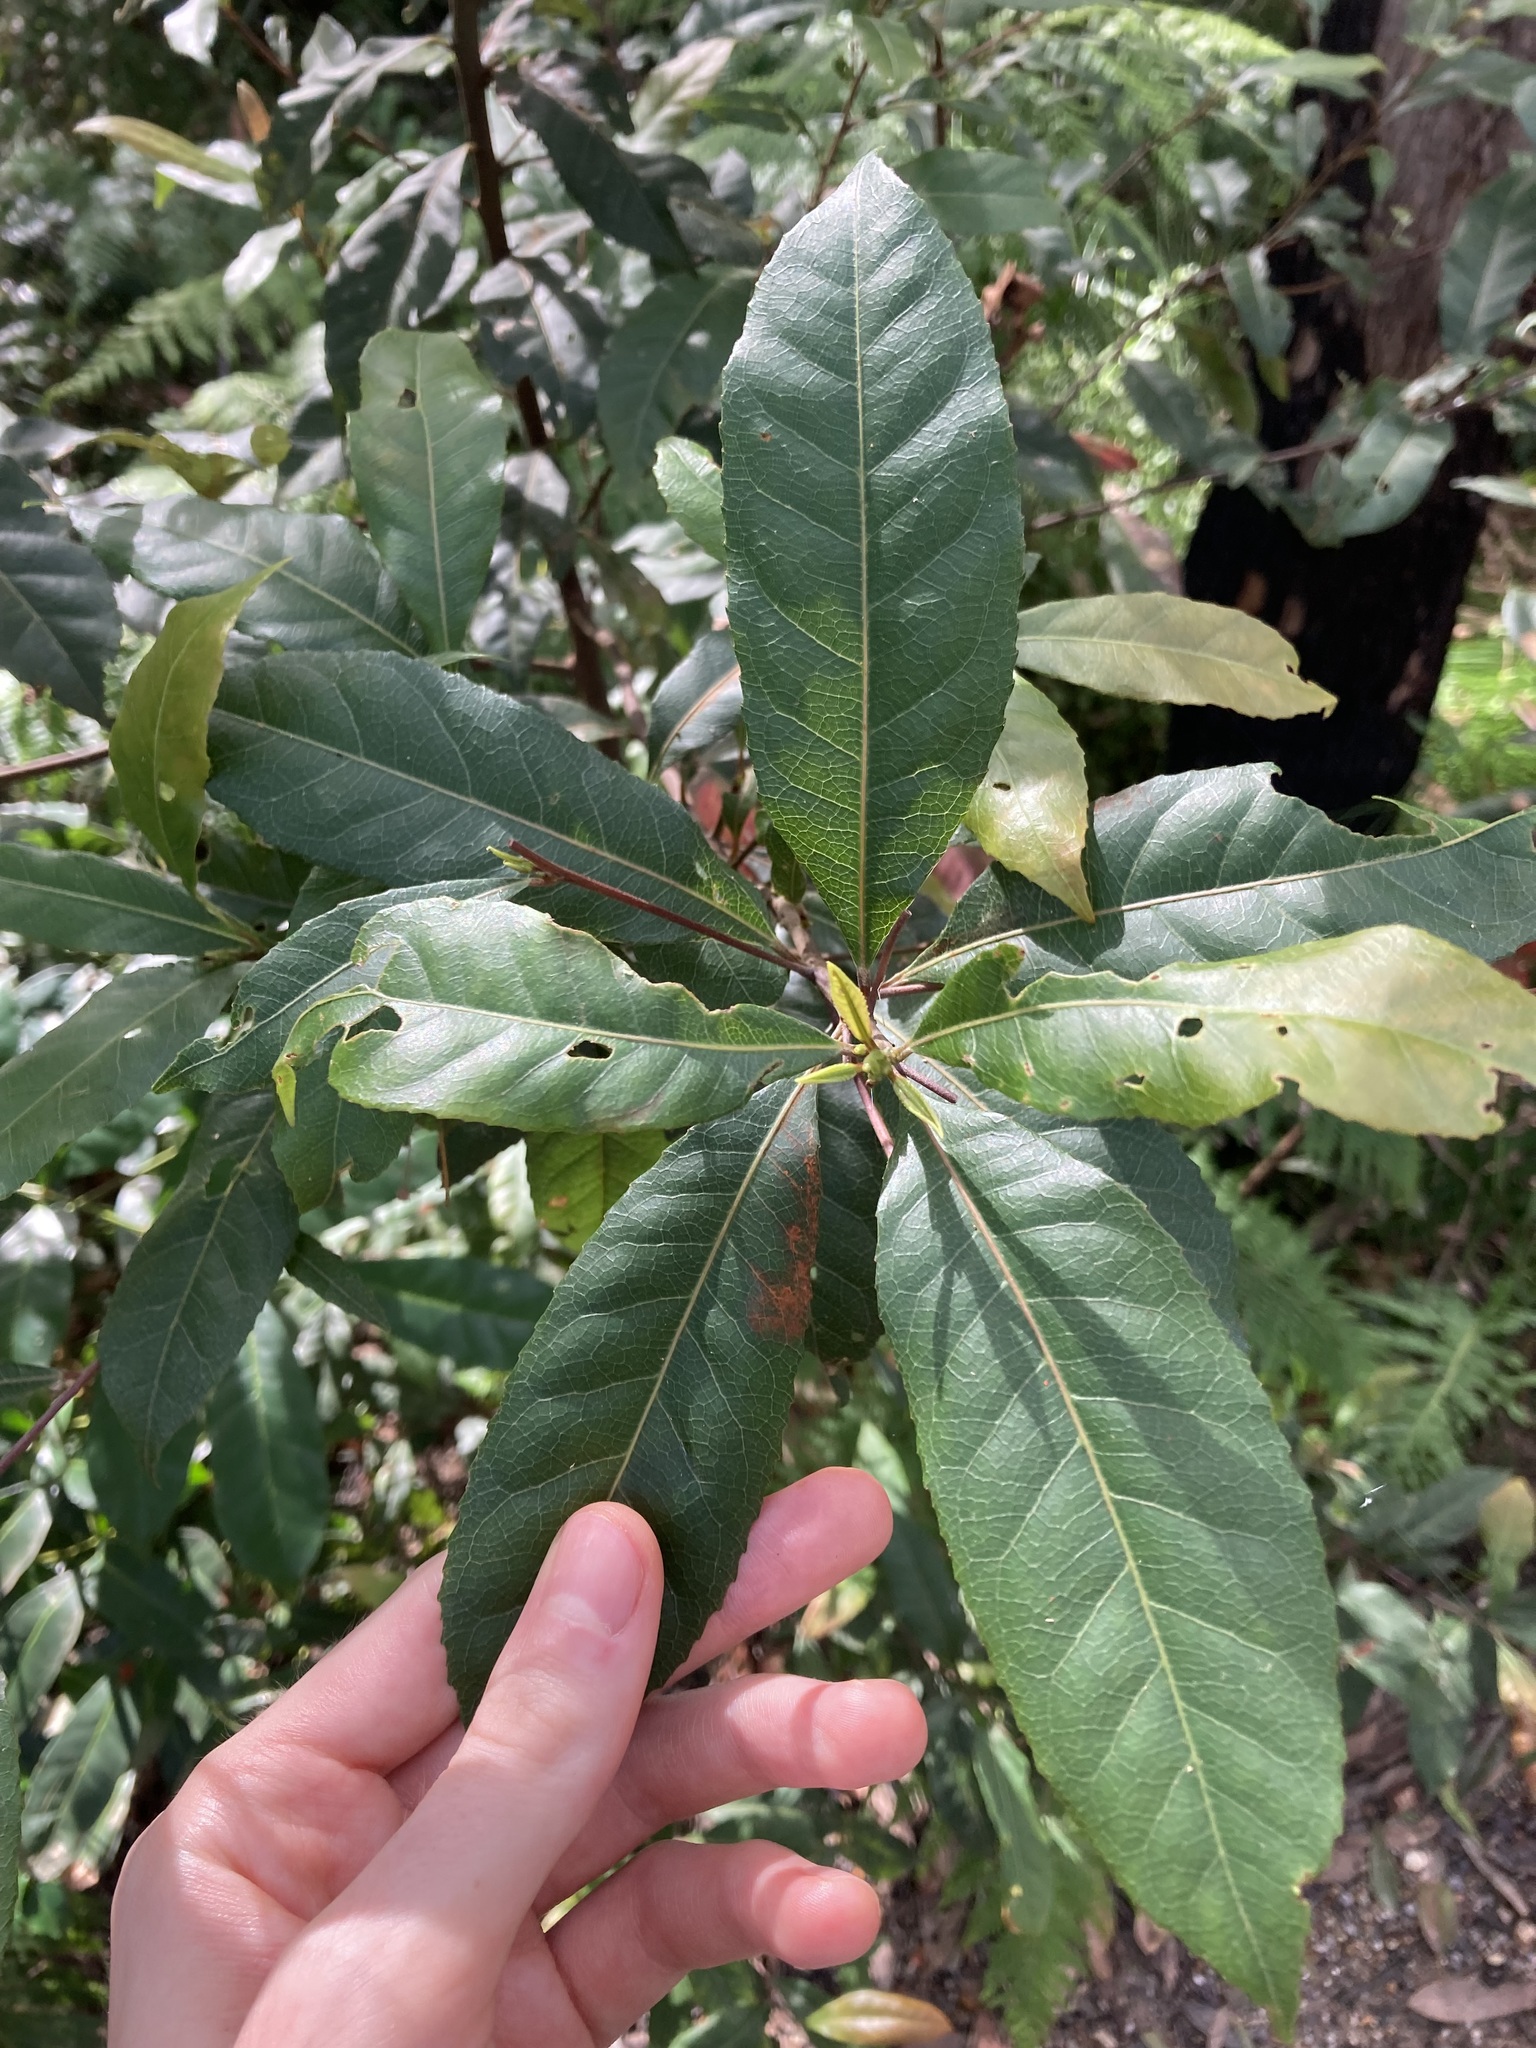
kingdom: Plantae
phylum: Tracheophyta
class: Magnoliopsida
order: Oxalidales
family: Elaeocarpaceae
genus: Elaeocarpus
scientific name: Elaeocarpus reticulatus
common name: Ash quandong
